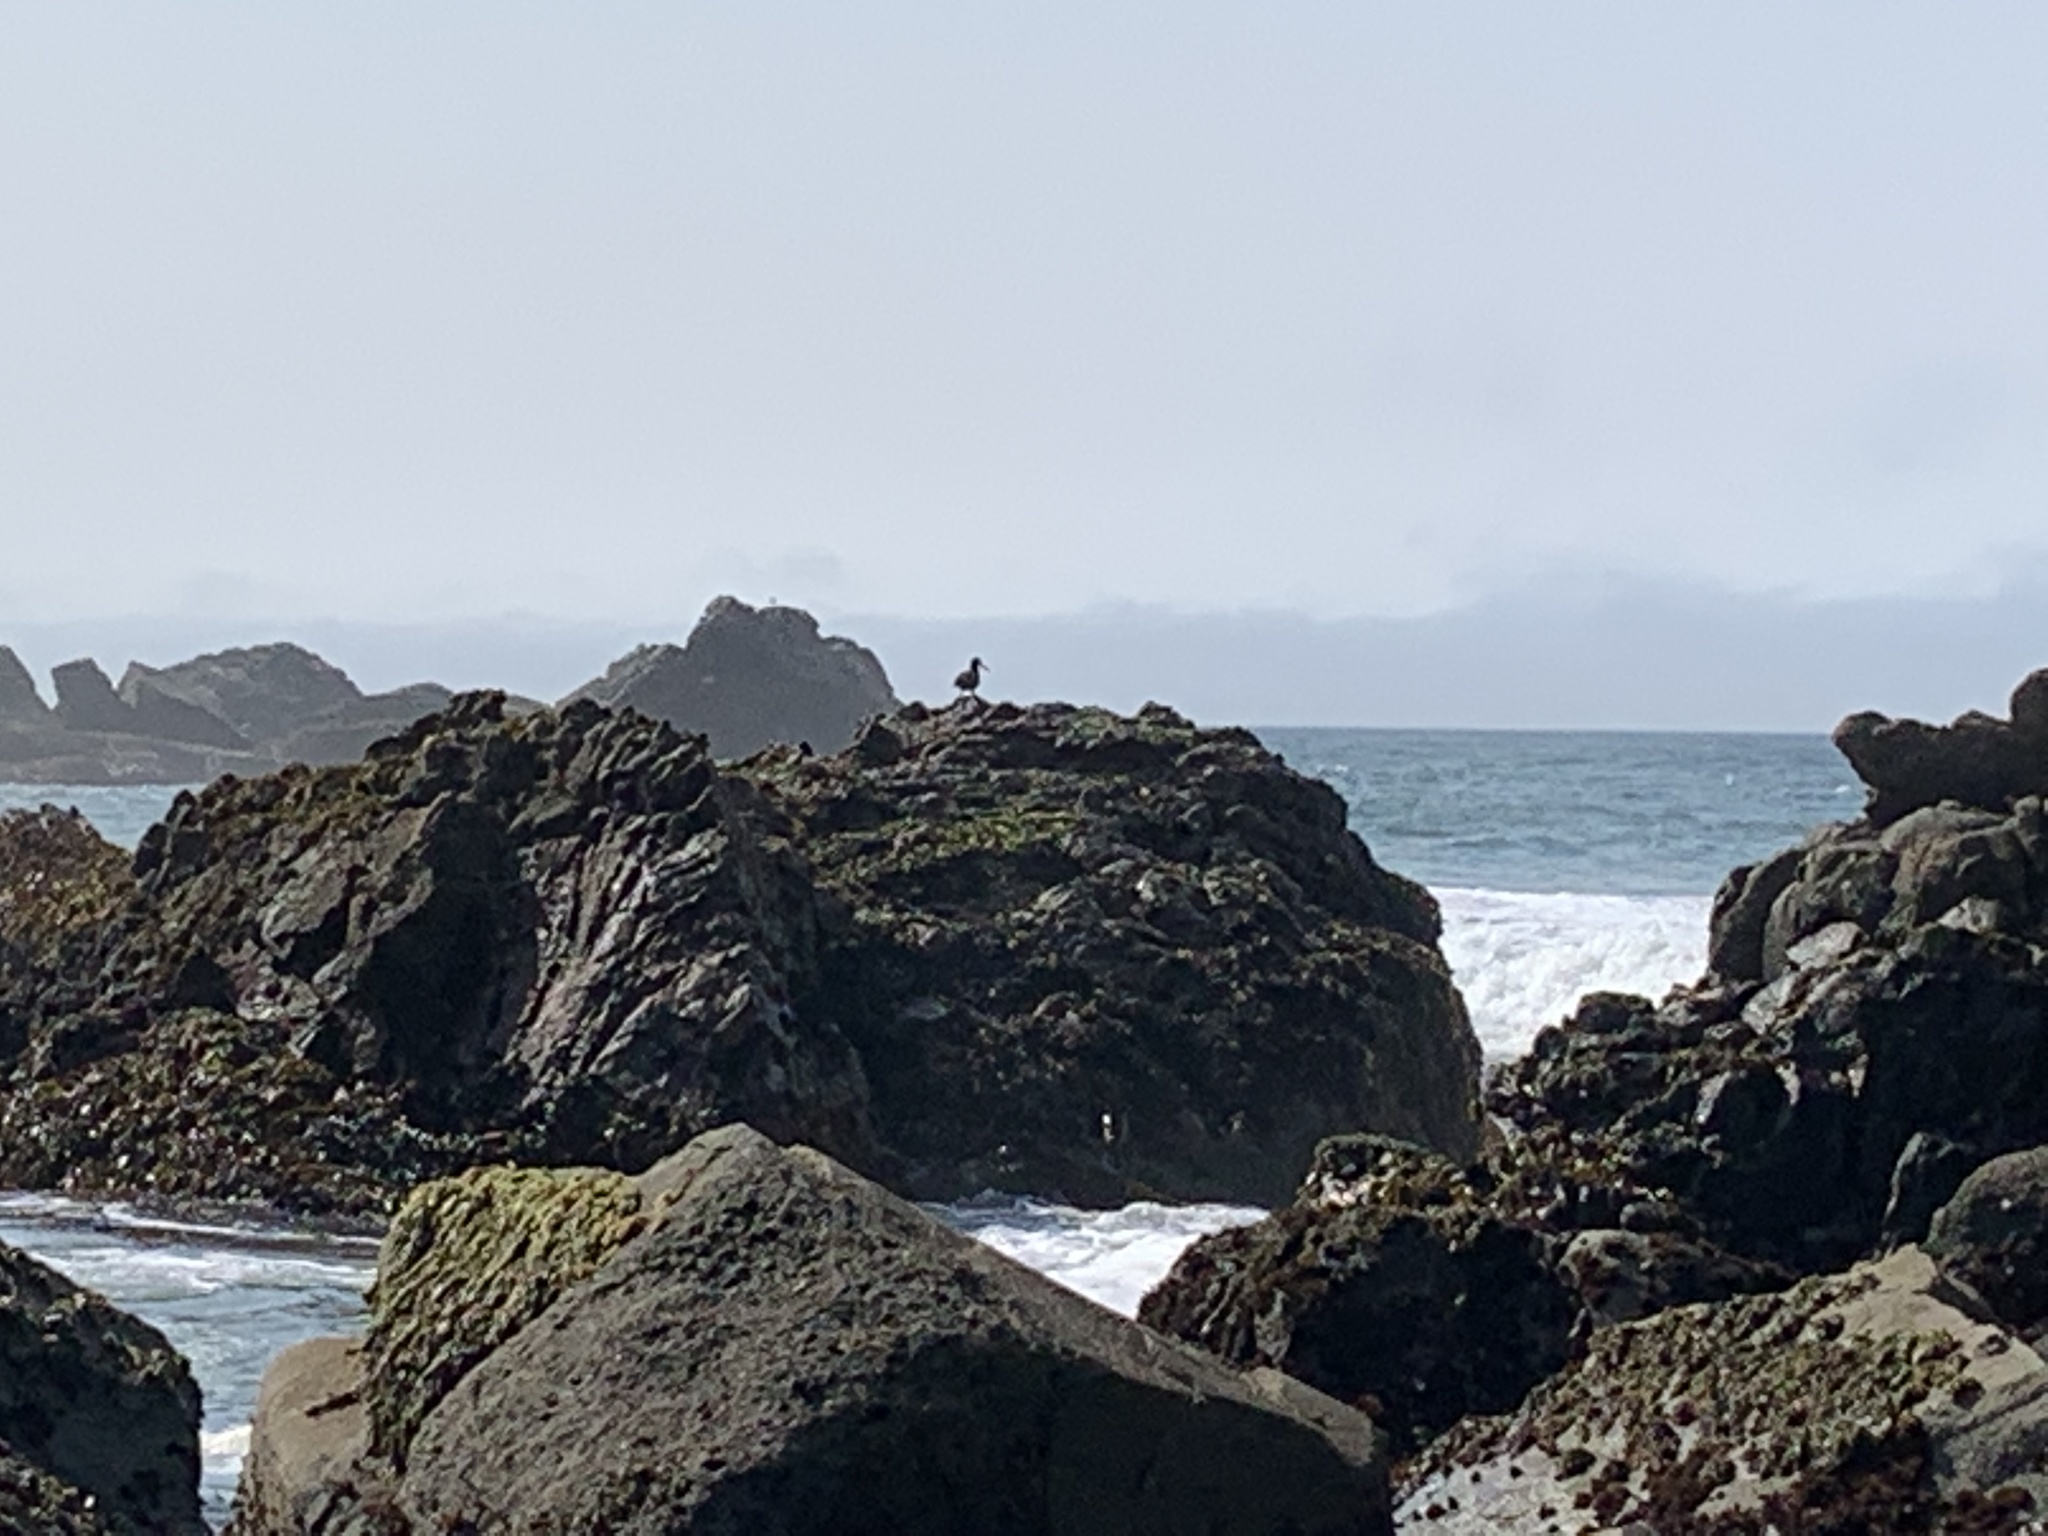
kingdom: Animalia
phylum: Chordata
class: Aves
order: Charadriiformes
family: Haematopodidae
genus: Haematopus
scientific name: Haematopus bachmani
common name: Black oystercatcher
